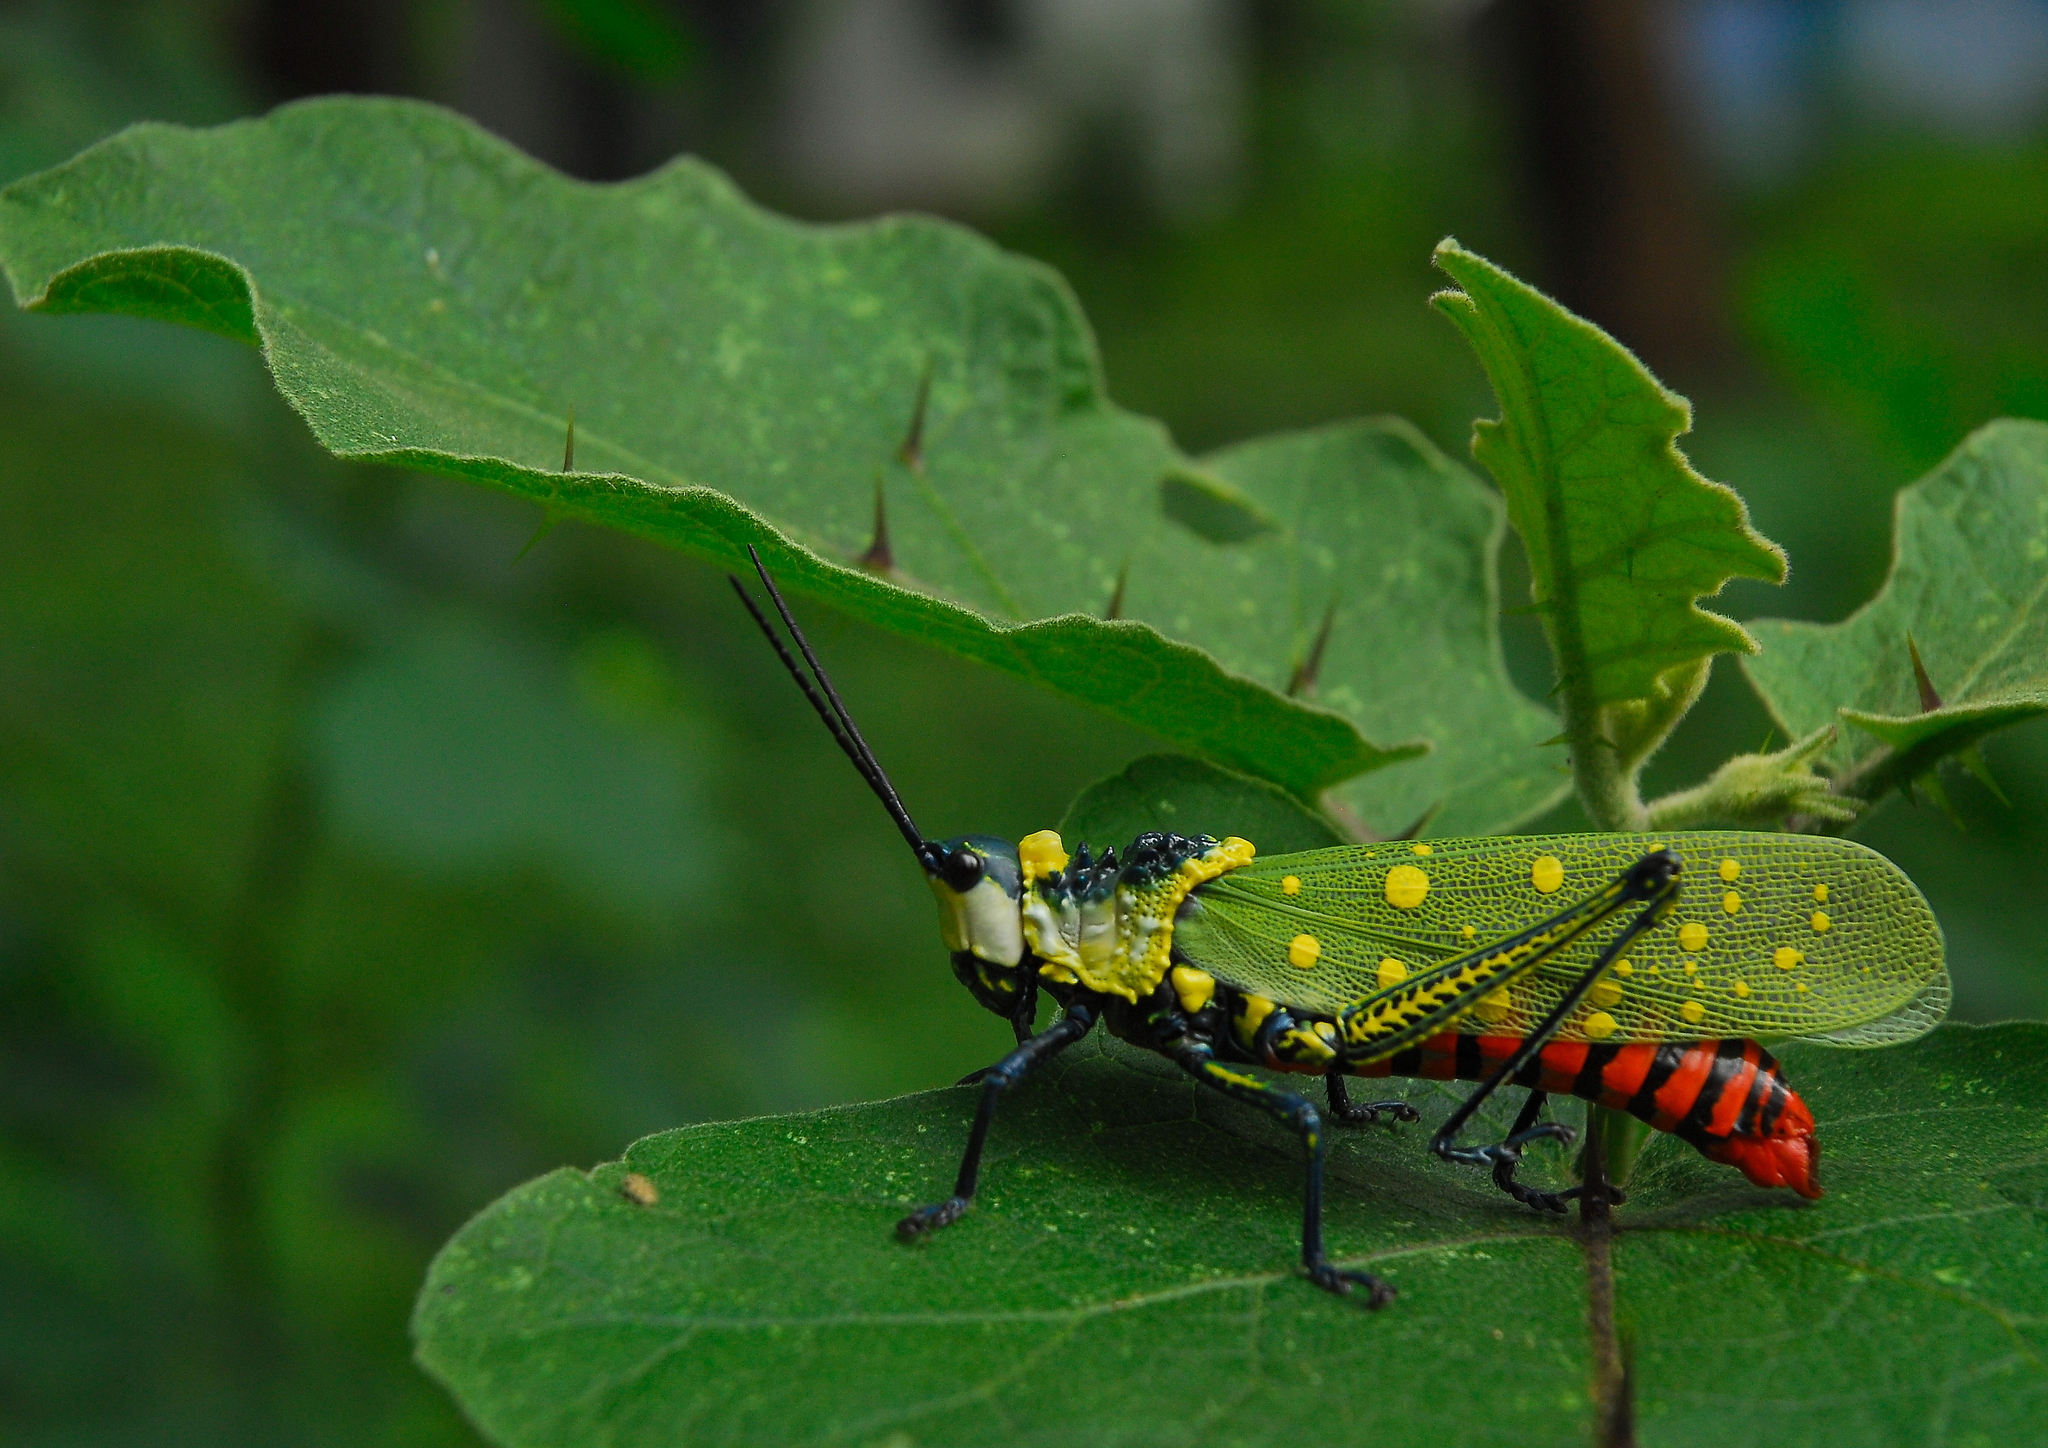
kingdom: Animalia
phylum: Arthropoda
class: Insecta
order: Orthoptera
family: Pyrgomorphidae
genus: Aularches
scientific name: Aularches miliaris
